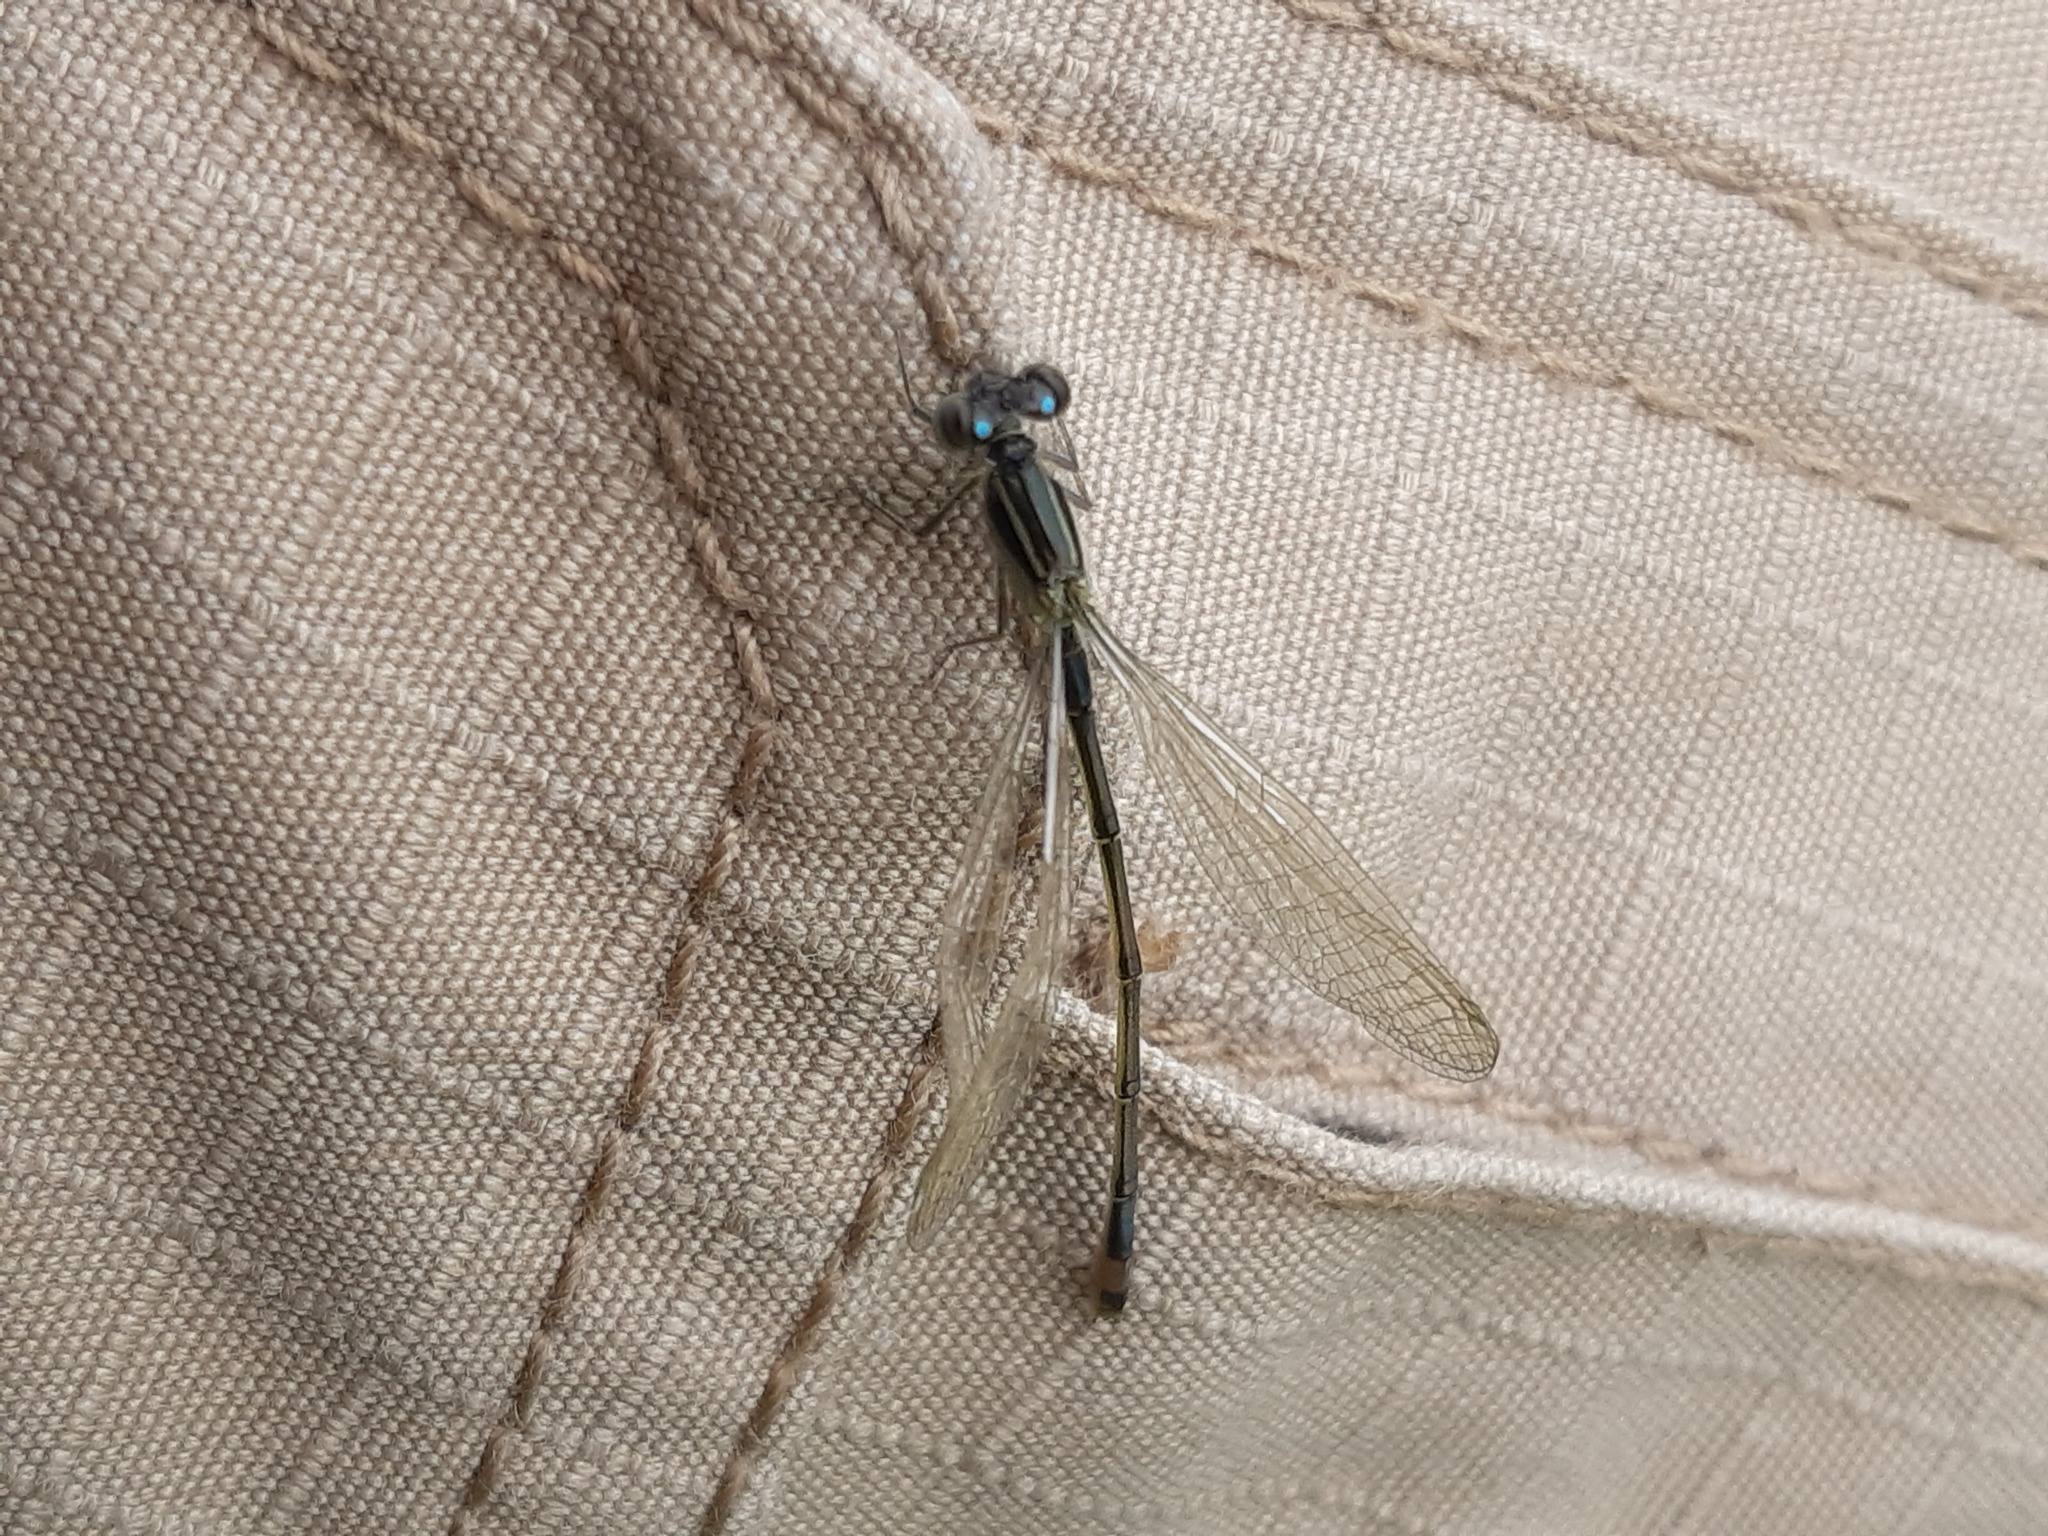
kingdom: Animalia
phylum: Arthropoda
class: Insecta
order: Odonata
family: Coenagrionidae
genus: Ischnura
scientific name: Ischnura elegans
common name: Blue-tailed damselfly
